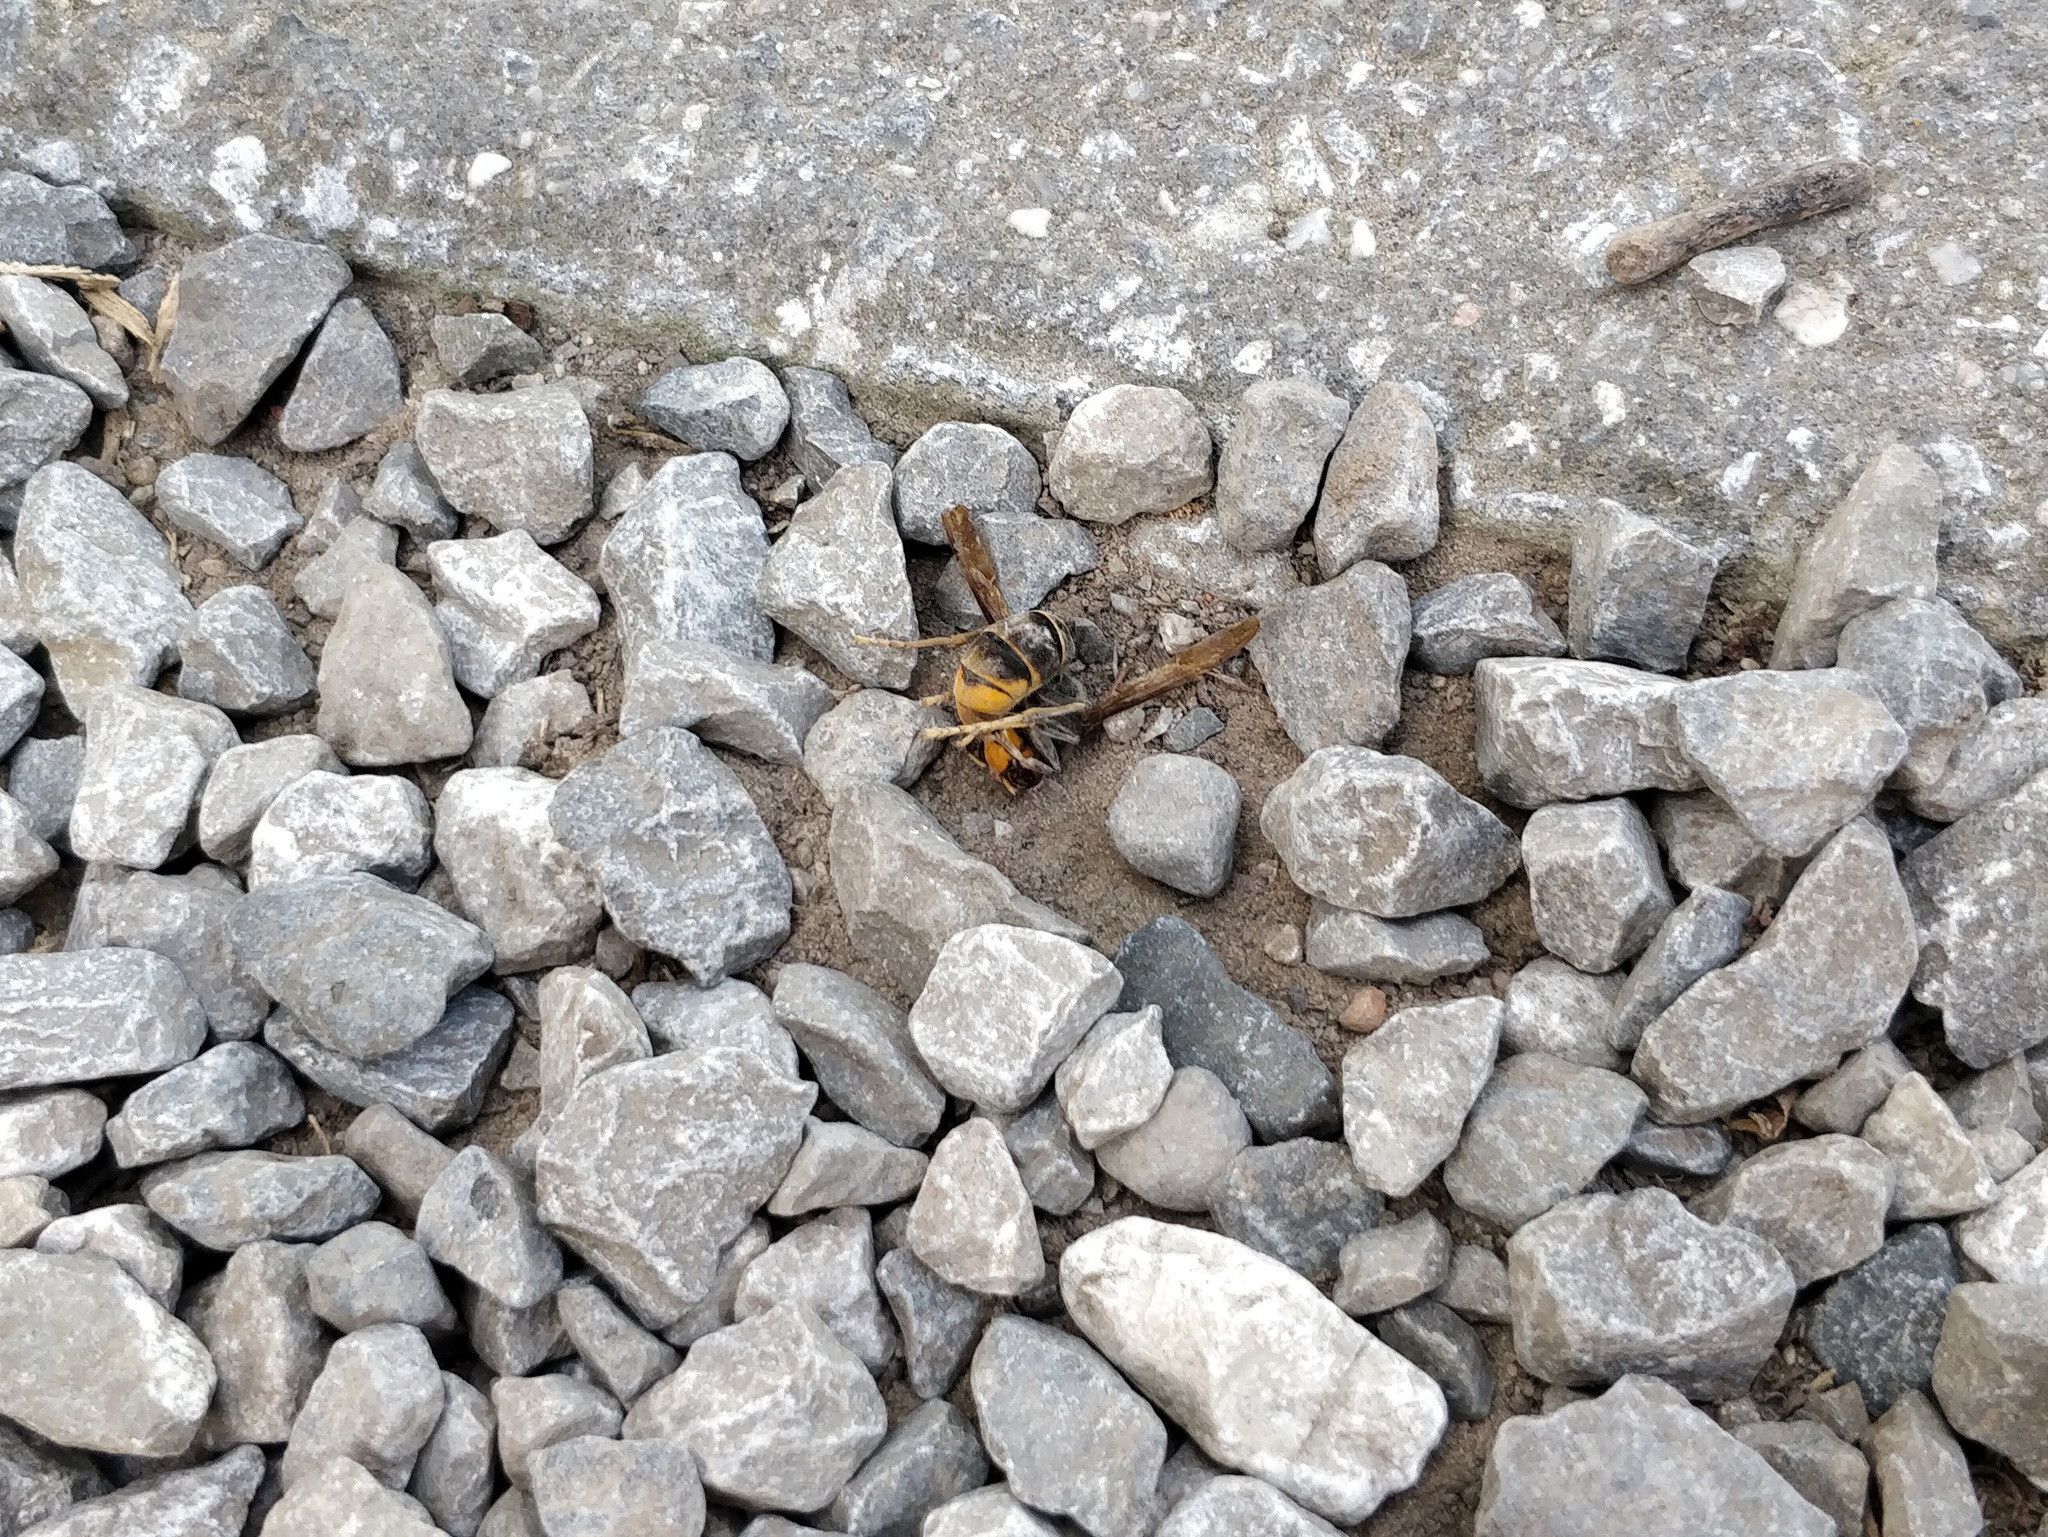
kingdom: Animalia
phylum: Arthropoda
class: Insecta
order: Hymenoptera
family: Vespidae
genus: Vespa
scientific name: Vespa velutina
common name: Asian hornet
